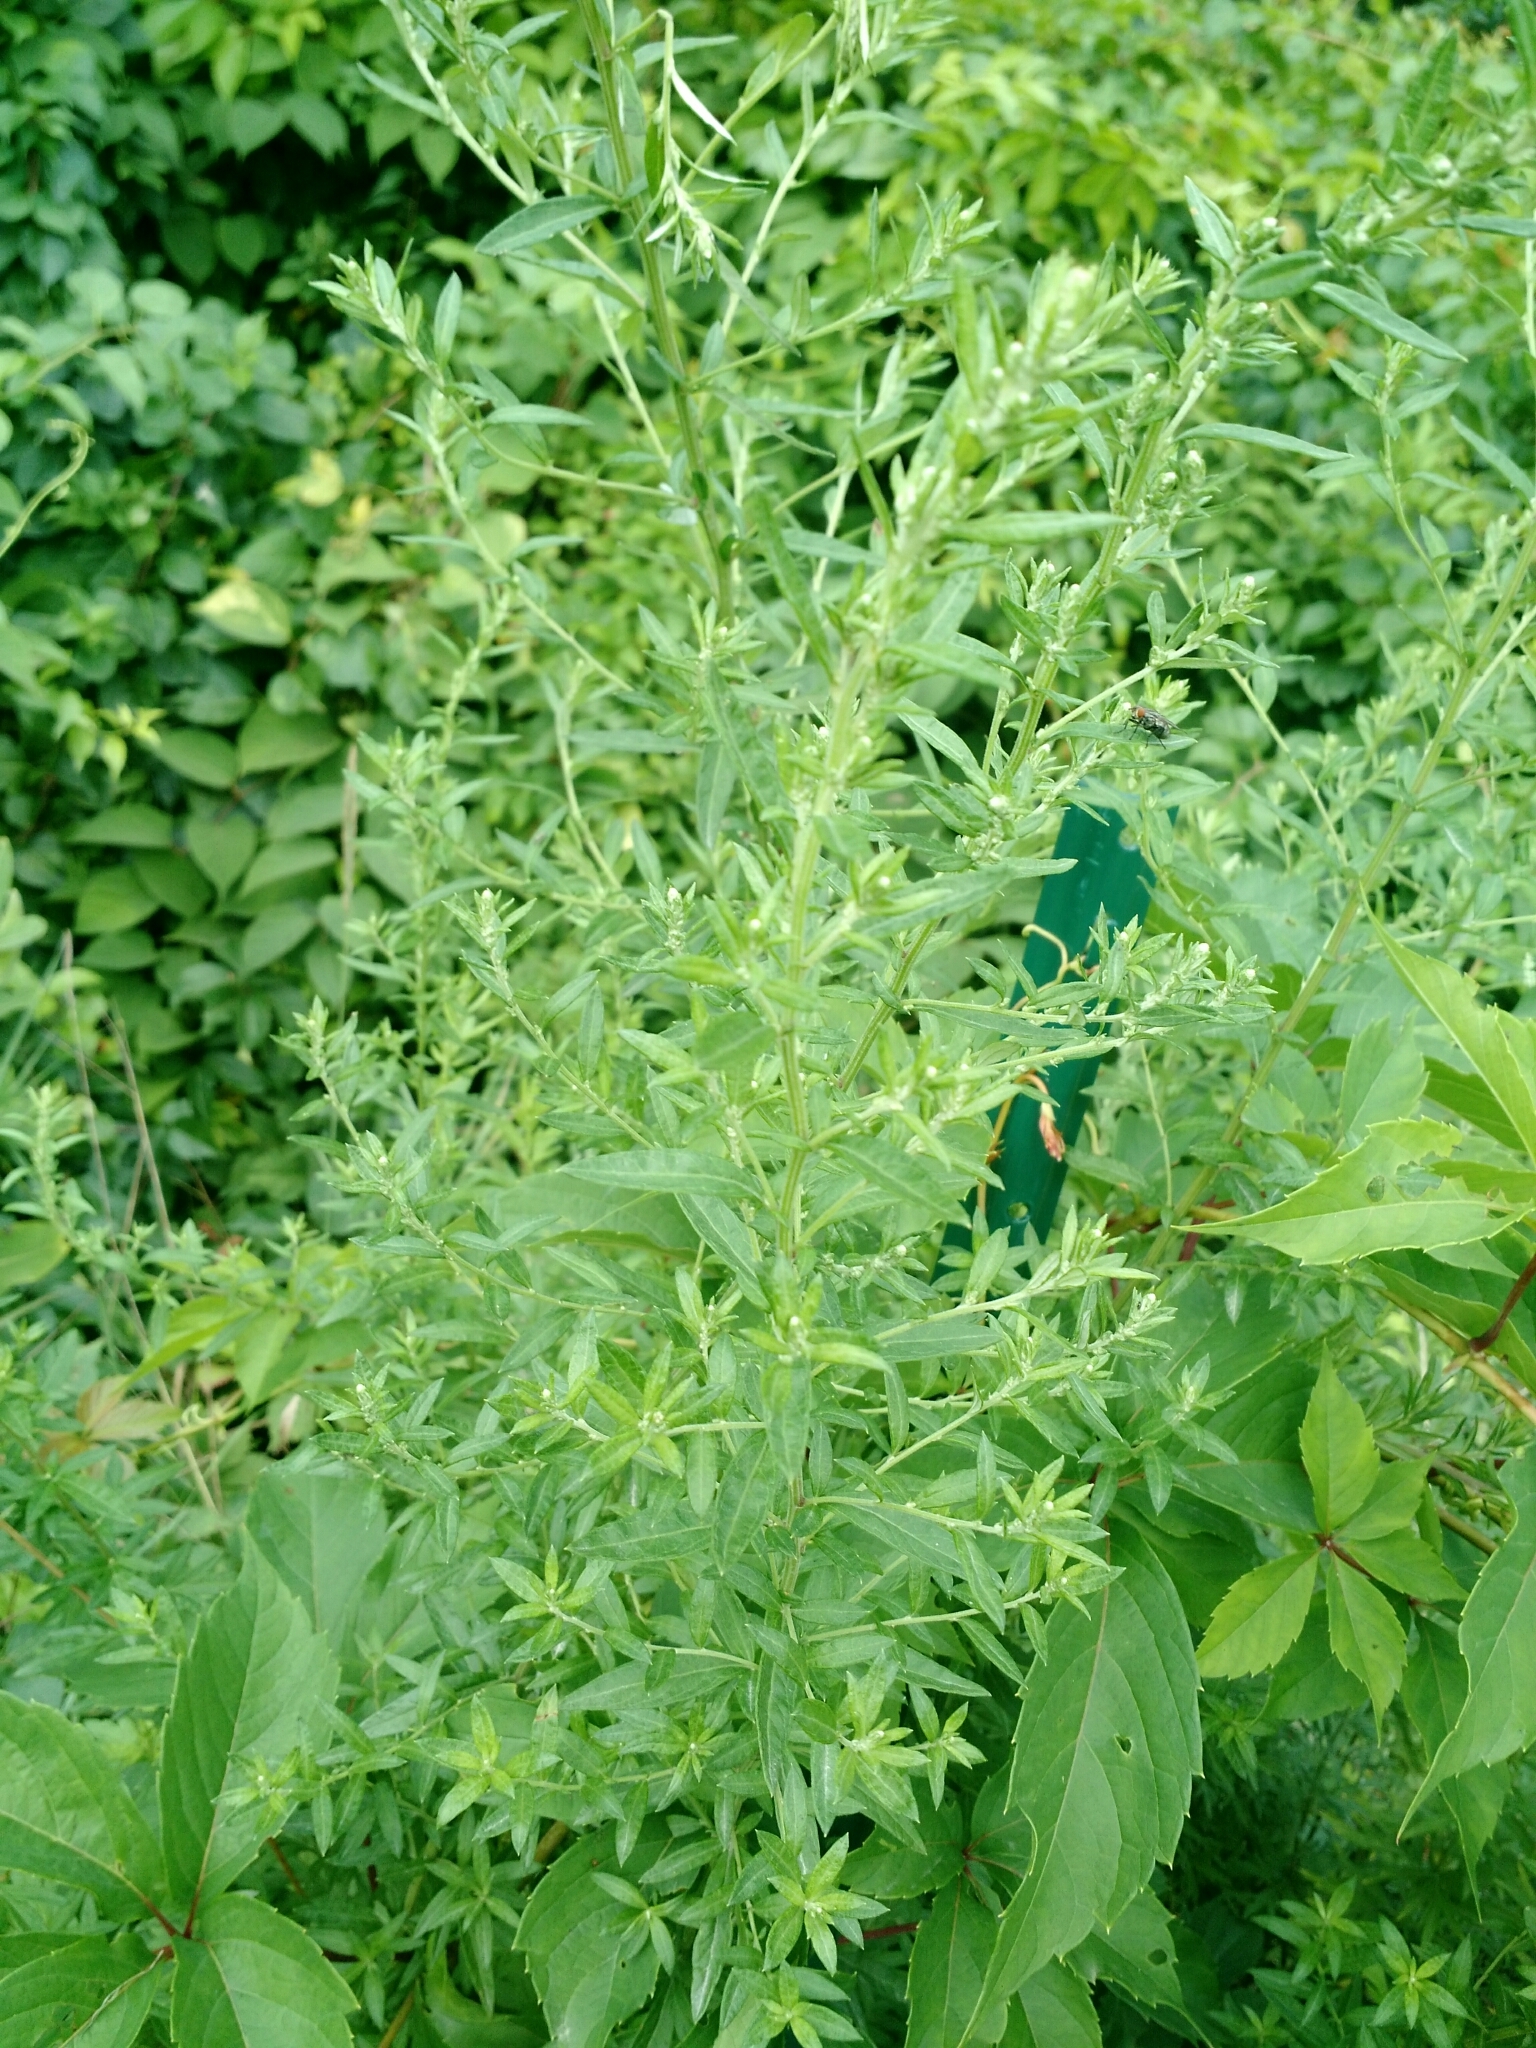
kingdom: Plantae
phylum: Tracheophyta
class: Magnoliopsida
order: Asterales
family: Asteraceae
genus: Artemisia
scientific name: Artemisia vulgaris
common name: Mugwort
